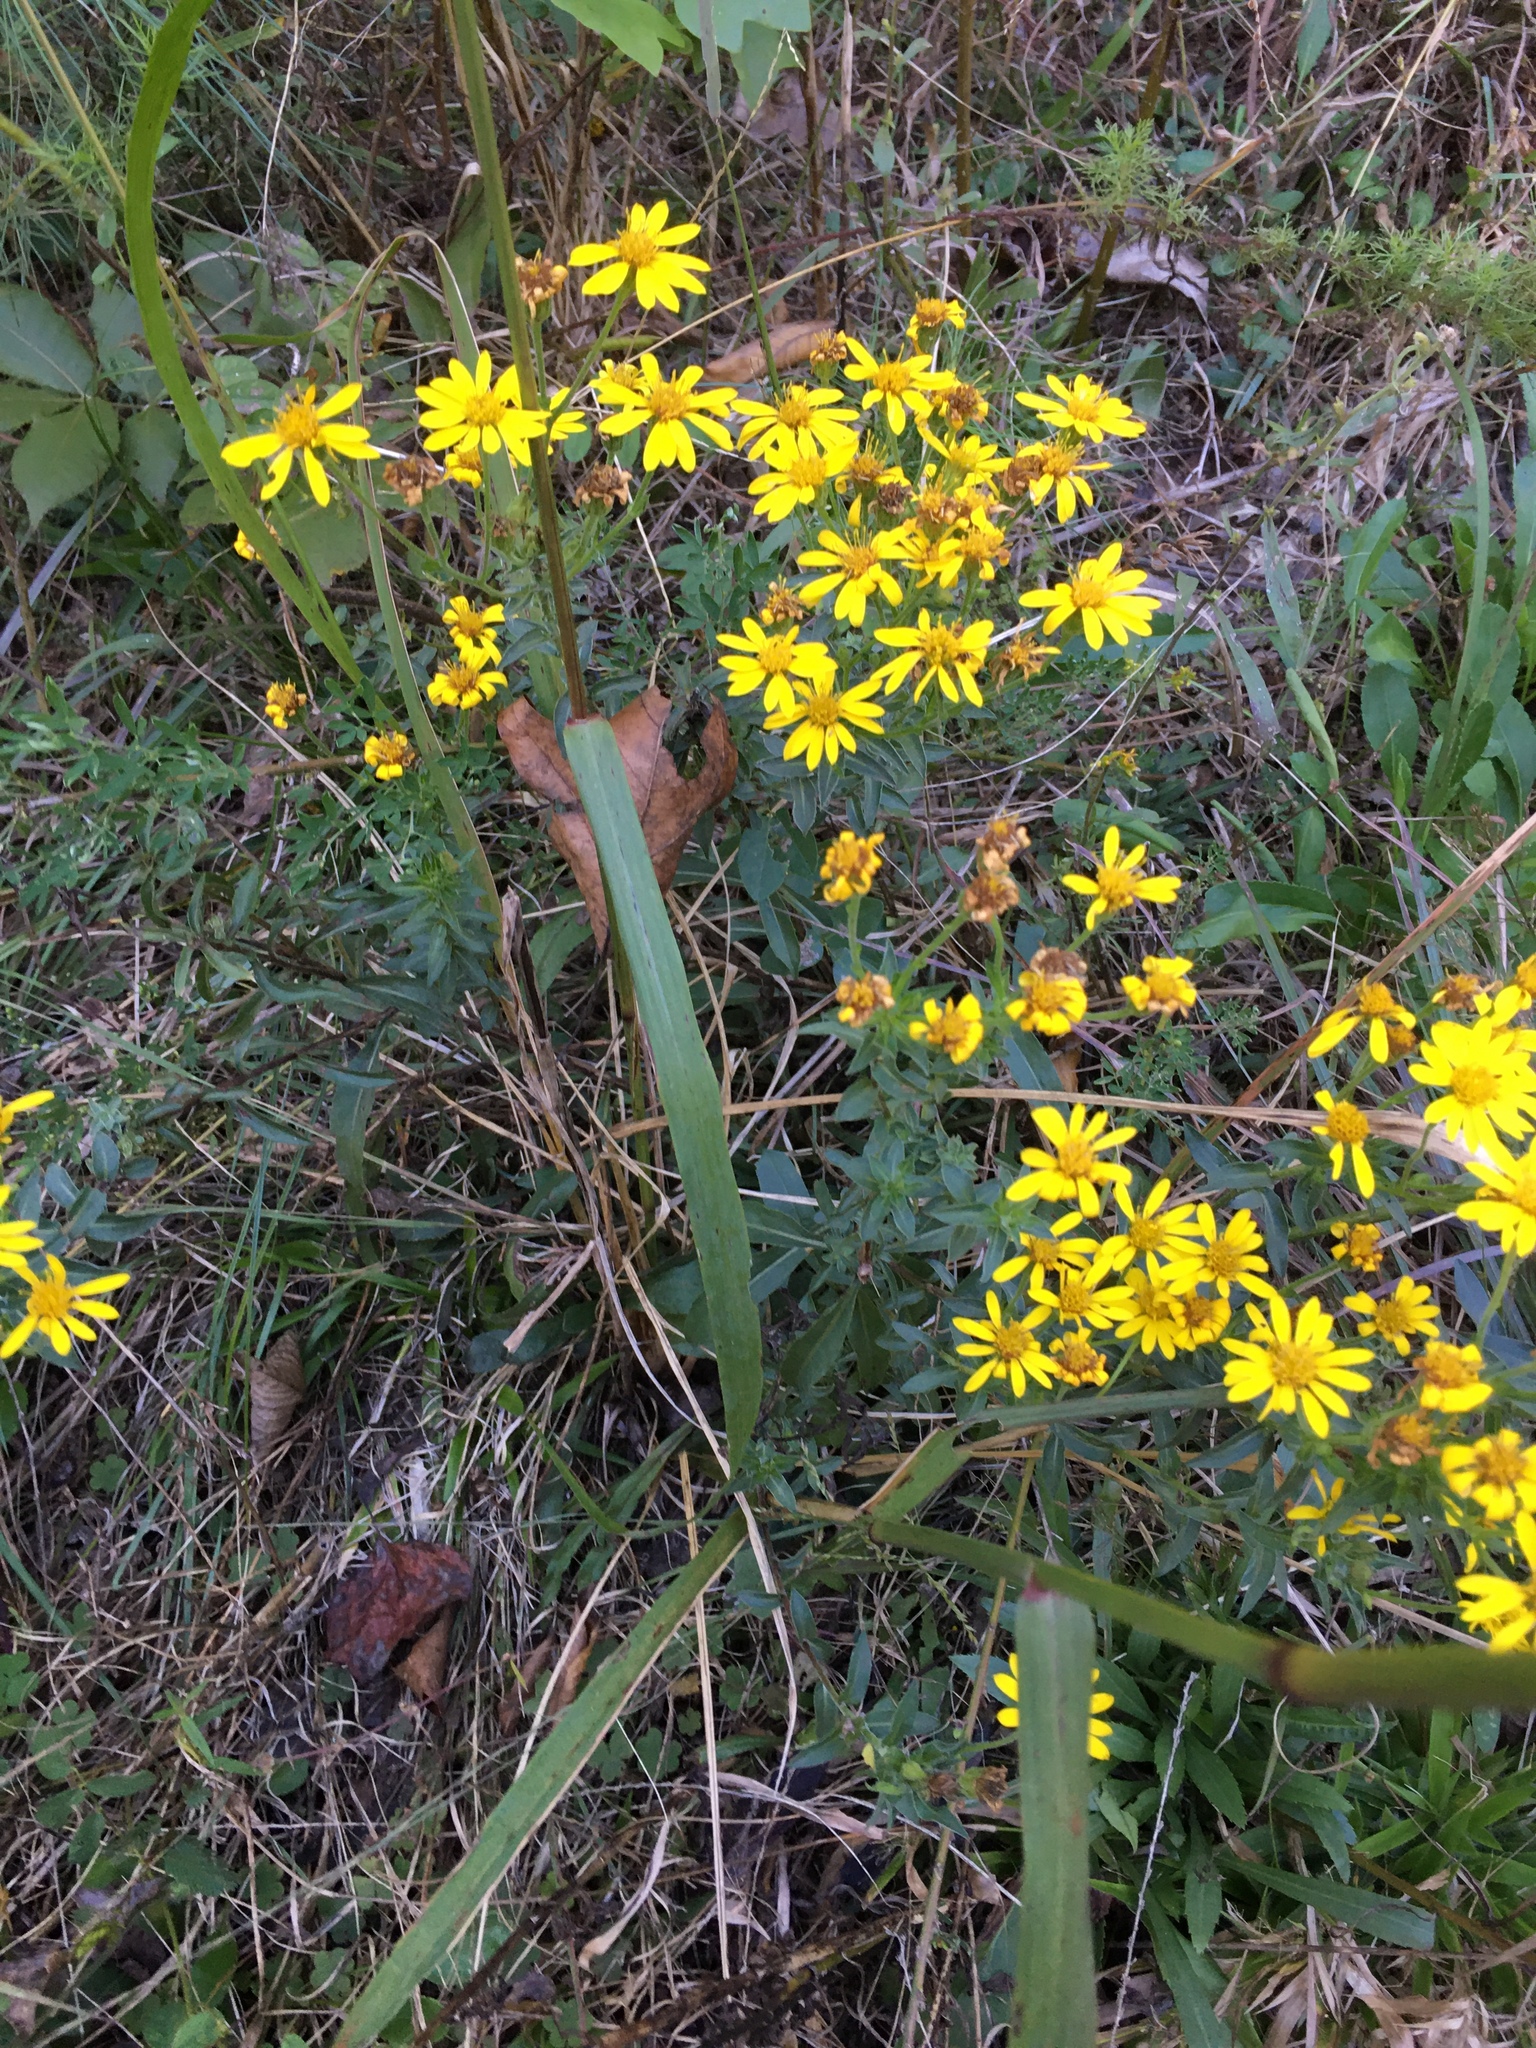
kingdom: Plantae
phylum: Tracheophyta
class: Magnoliopsida
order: Asterales
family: Asteraceae
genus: Chrysopsis
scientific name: Chrysopsis mariana
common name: Maryland golden-aster
